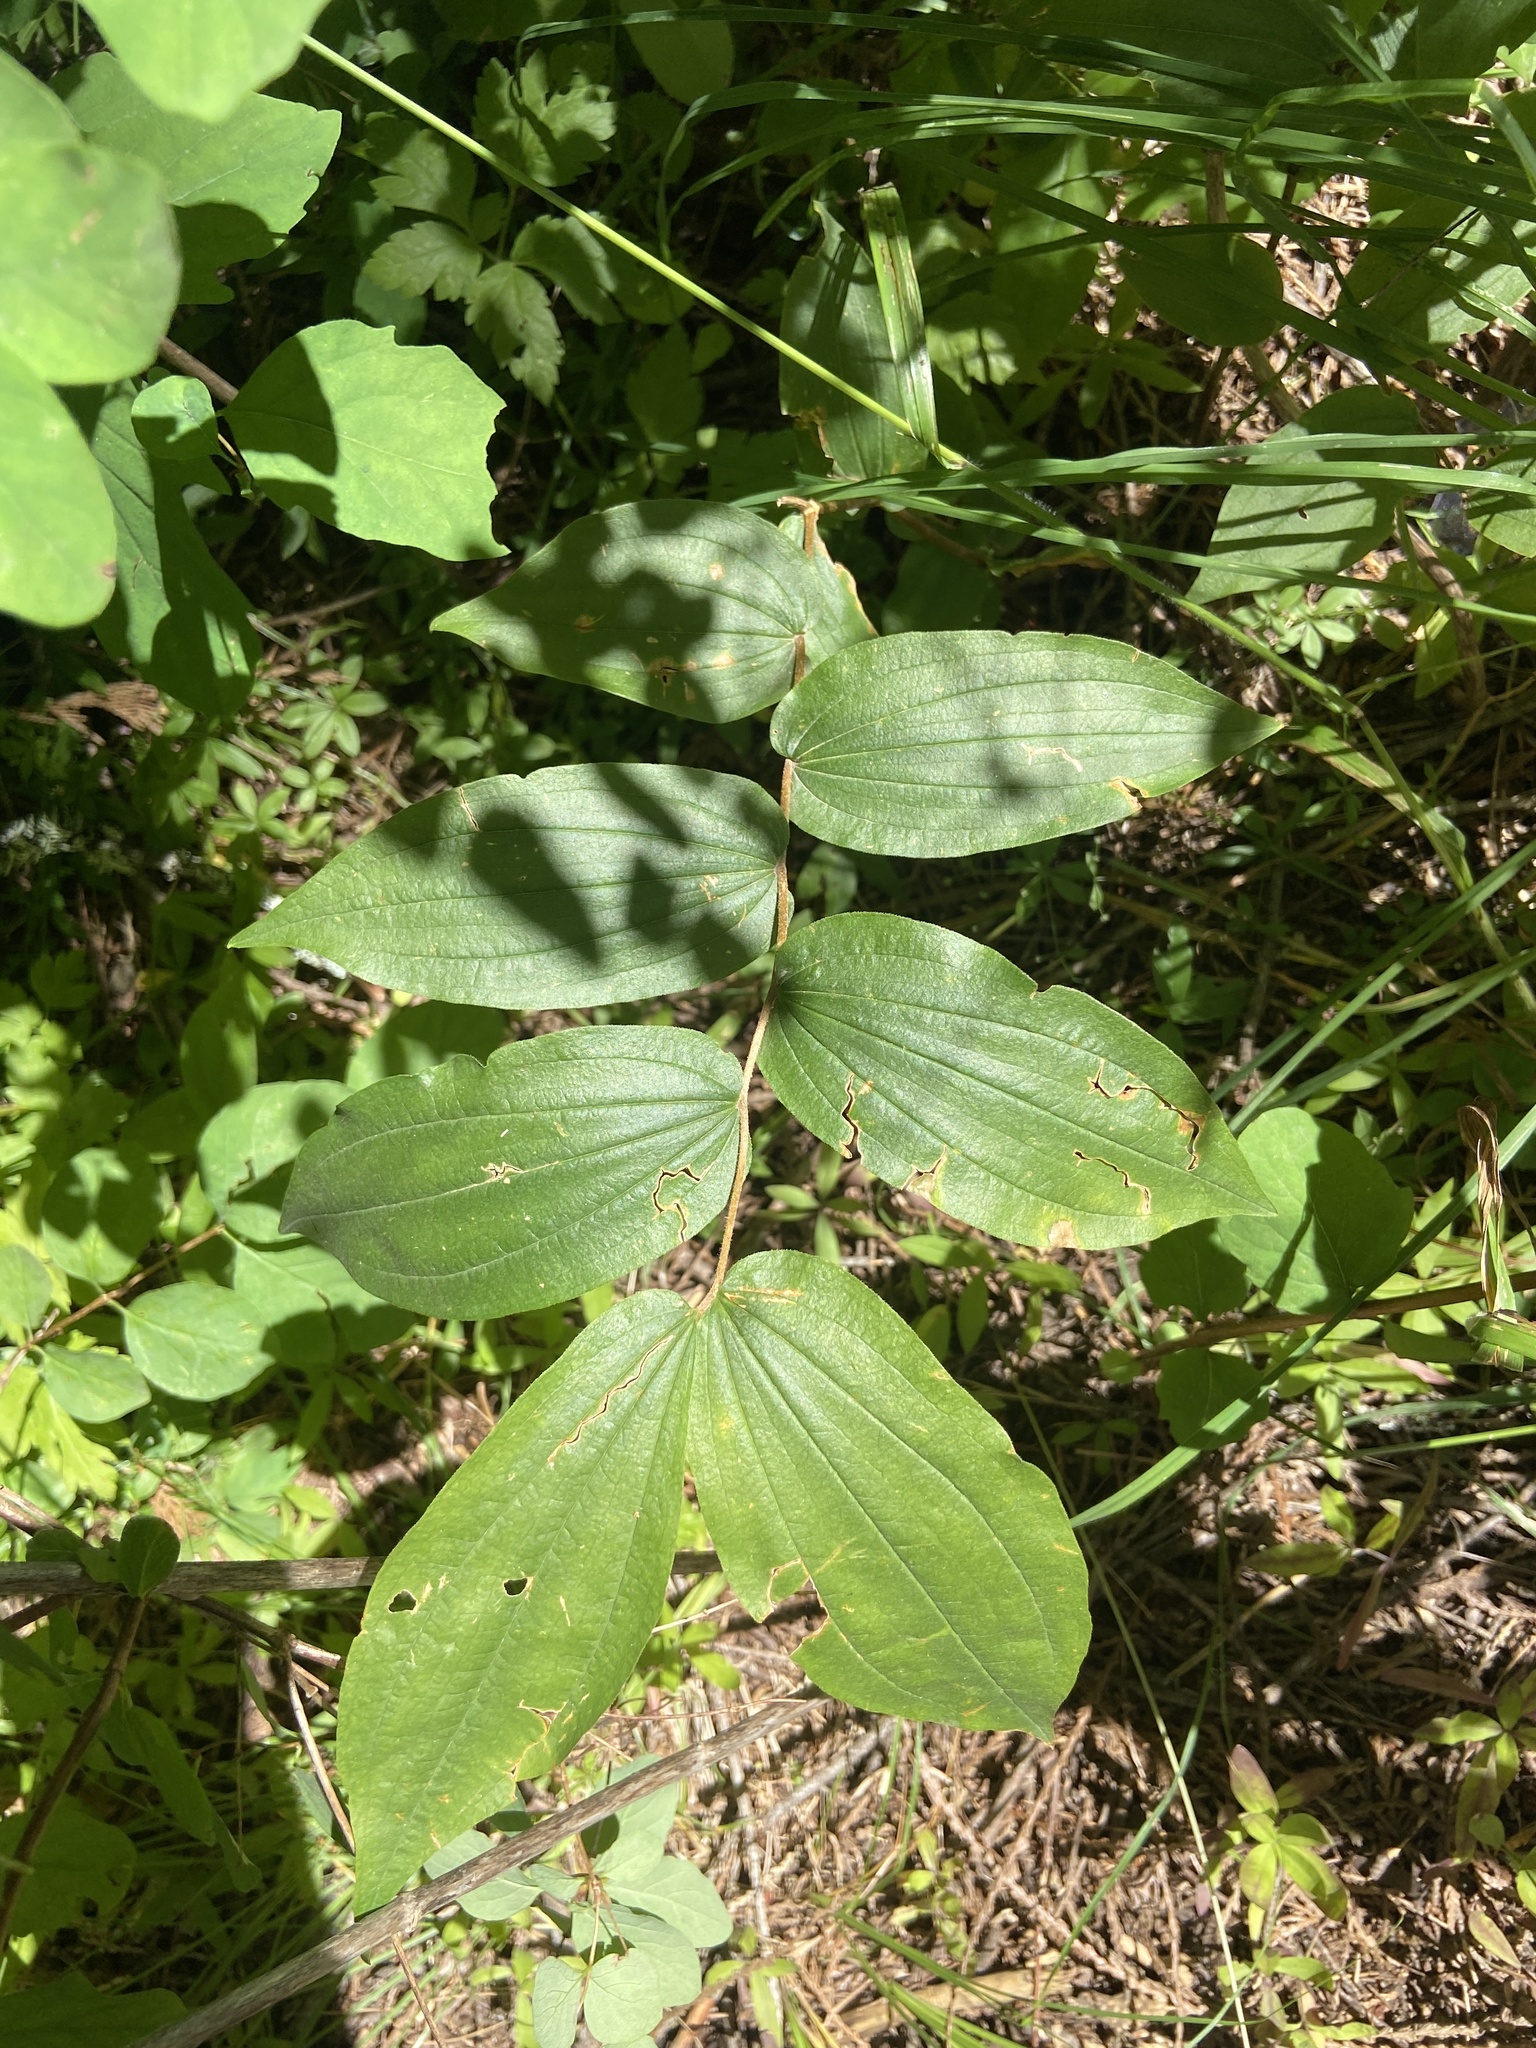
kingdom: Plantae
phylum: Tracheophyta
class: Liliopsida
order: Liliales
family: Liliaceae
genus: Prosartes
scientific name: Prosartes hookeri
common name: Fairy-bells
